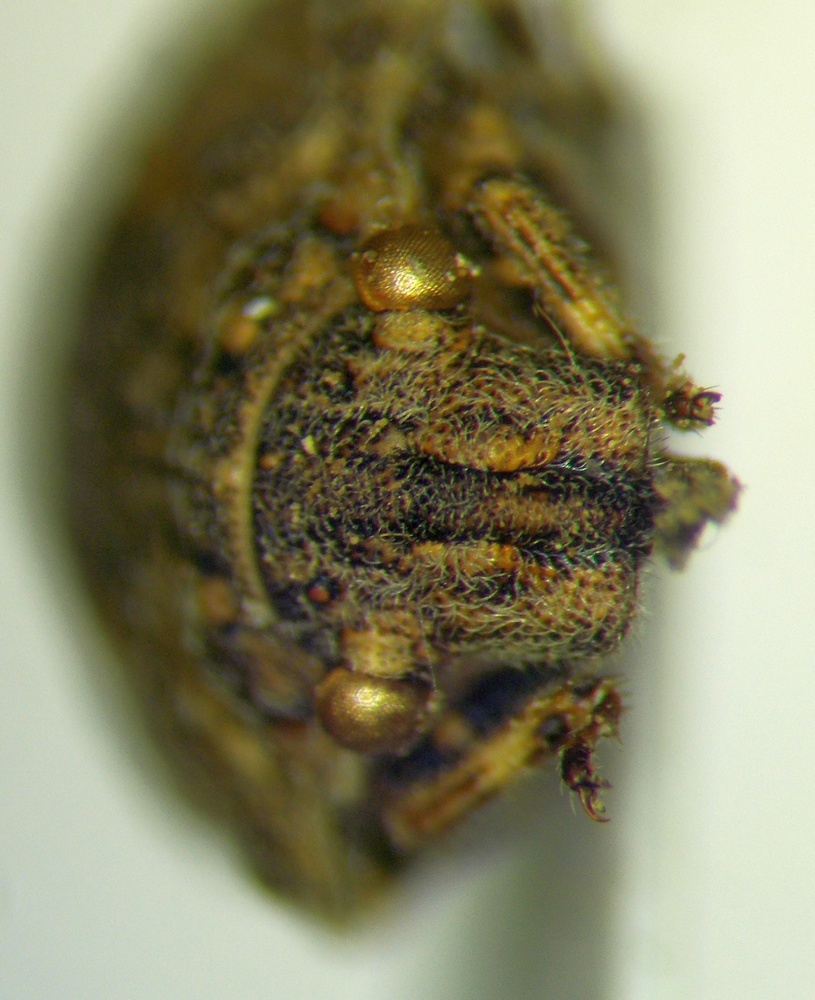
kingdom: Animalia
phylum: Arthropoda
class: Insecta
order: Hemiptera
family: Scutelleridae
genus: Phimodera
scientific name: Phimodera humeralis
